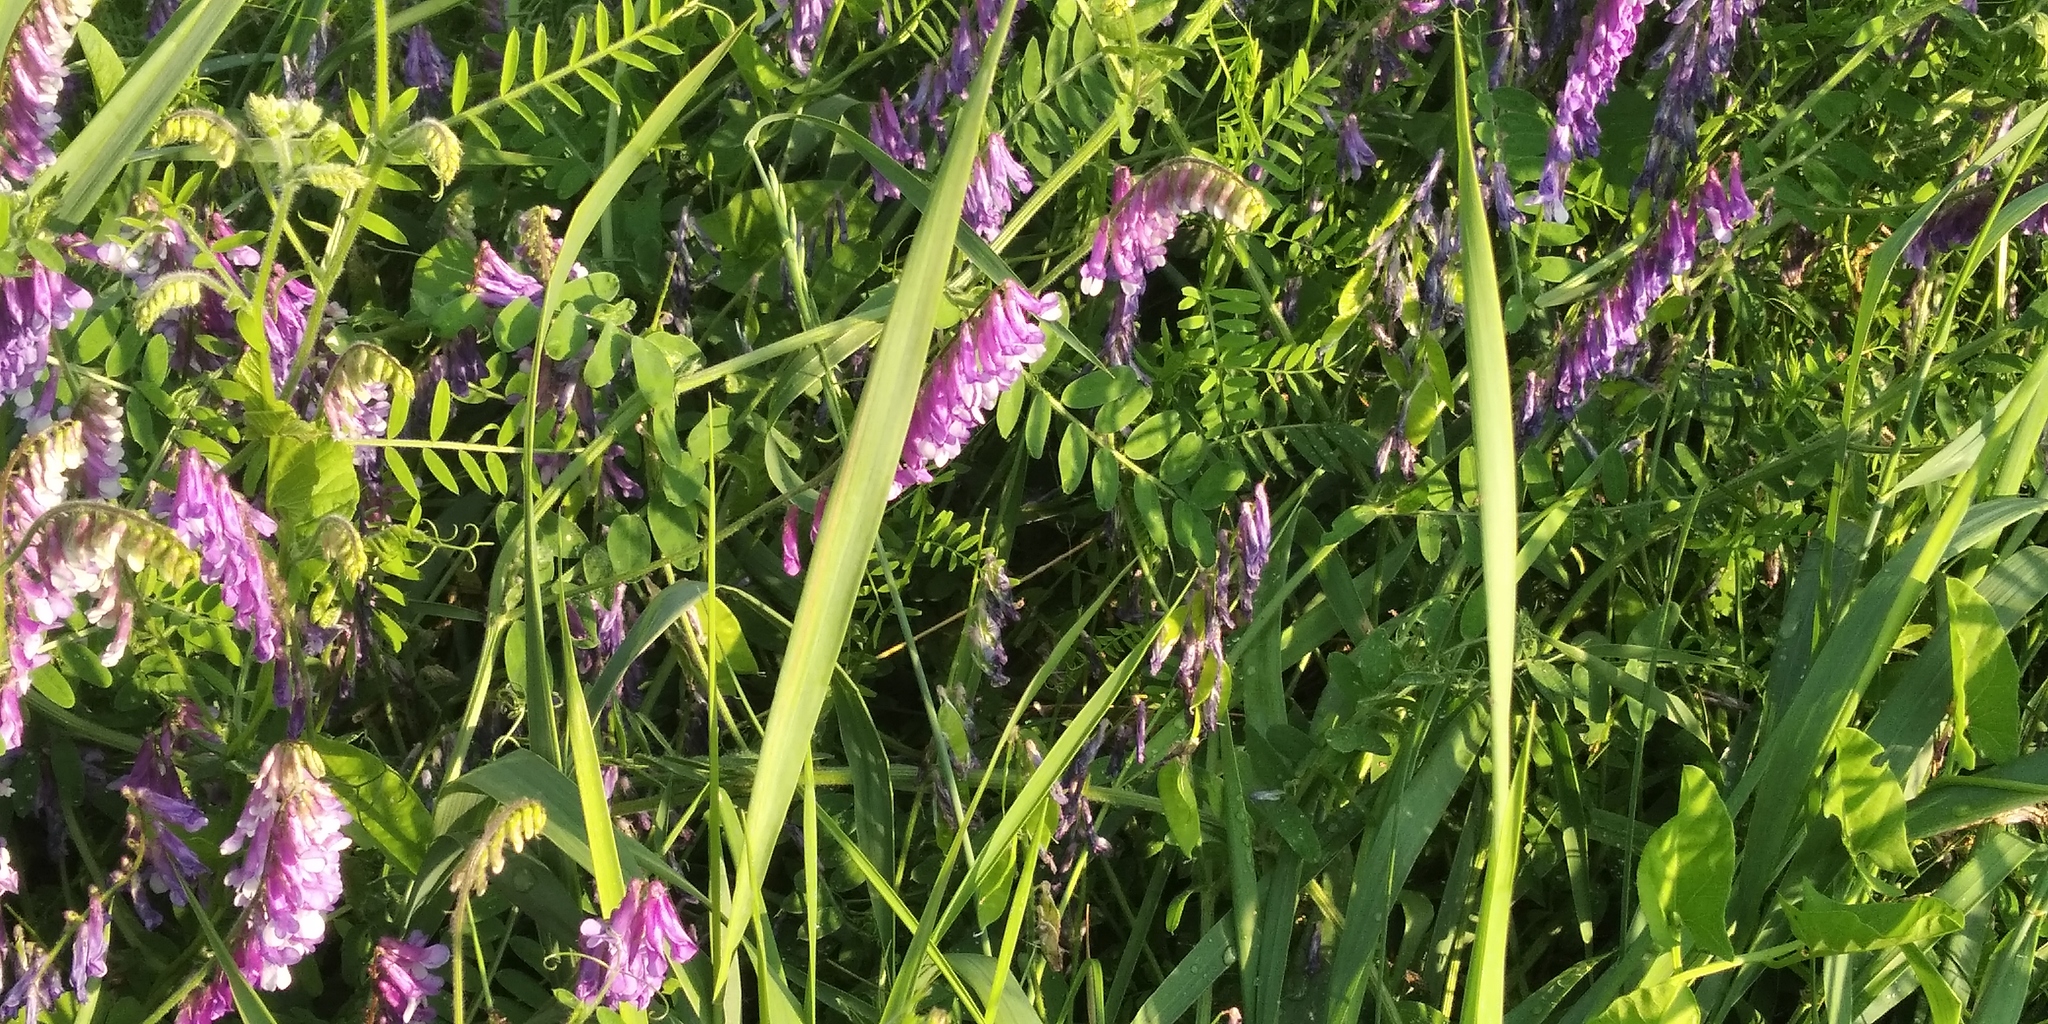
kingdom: Plantae
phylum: Tracheophyta
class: Magnoliopsida
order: Fabales
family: Fabaceae
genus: Vicia
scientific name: Vicia villosa
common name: Fodder vetch
